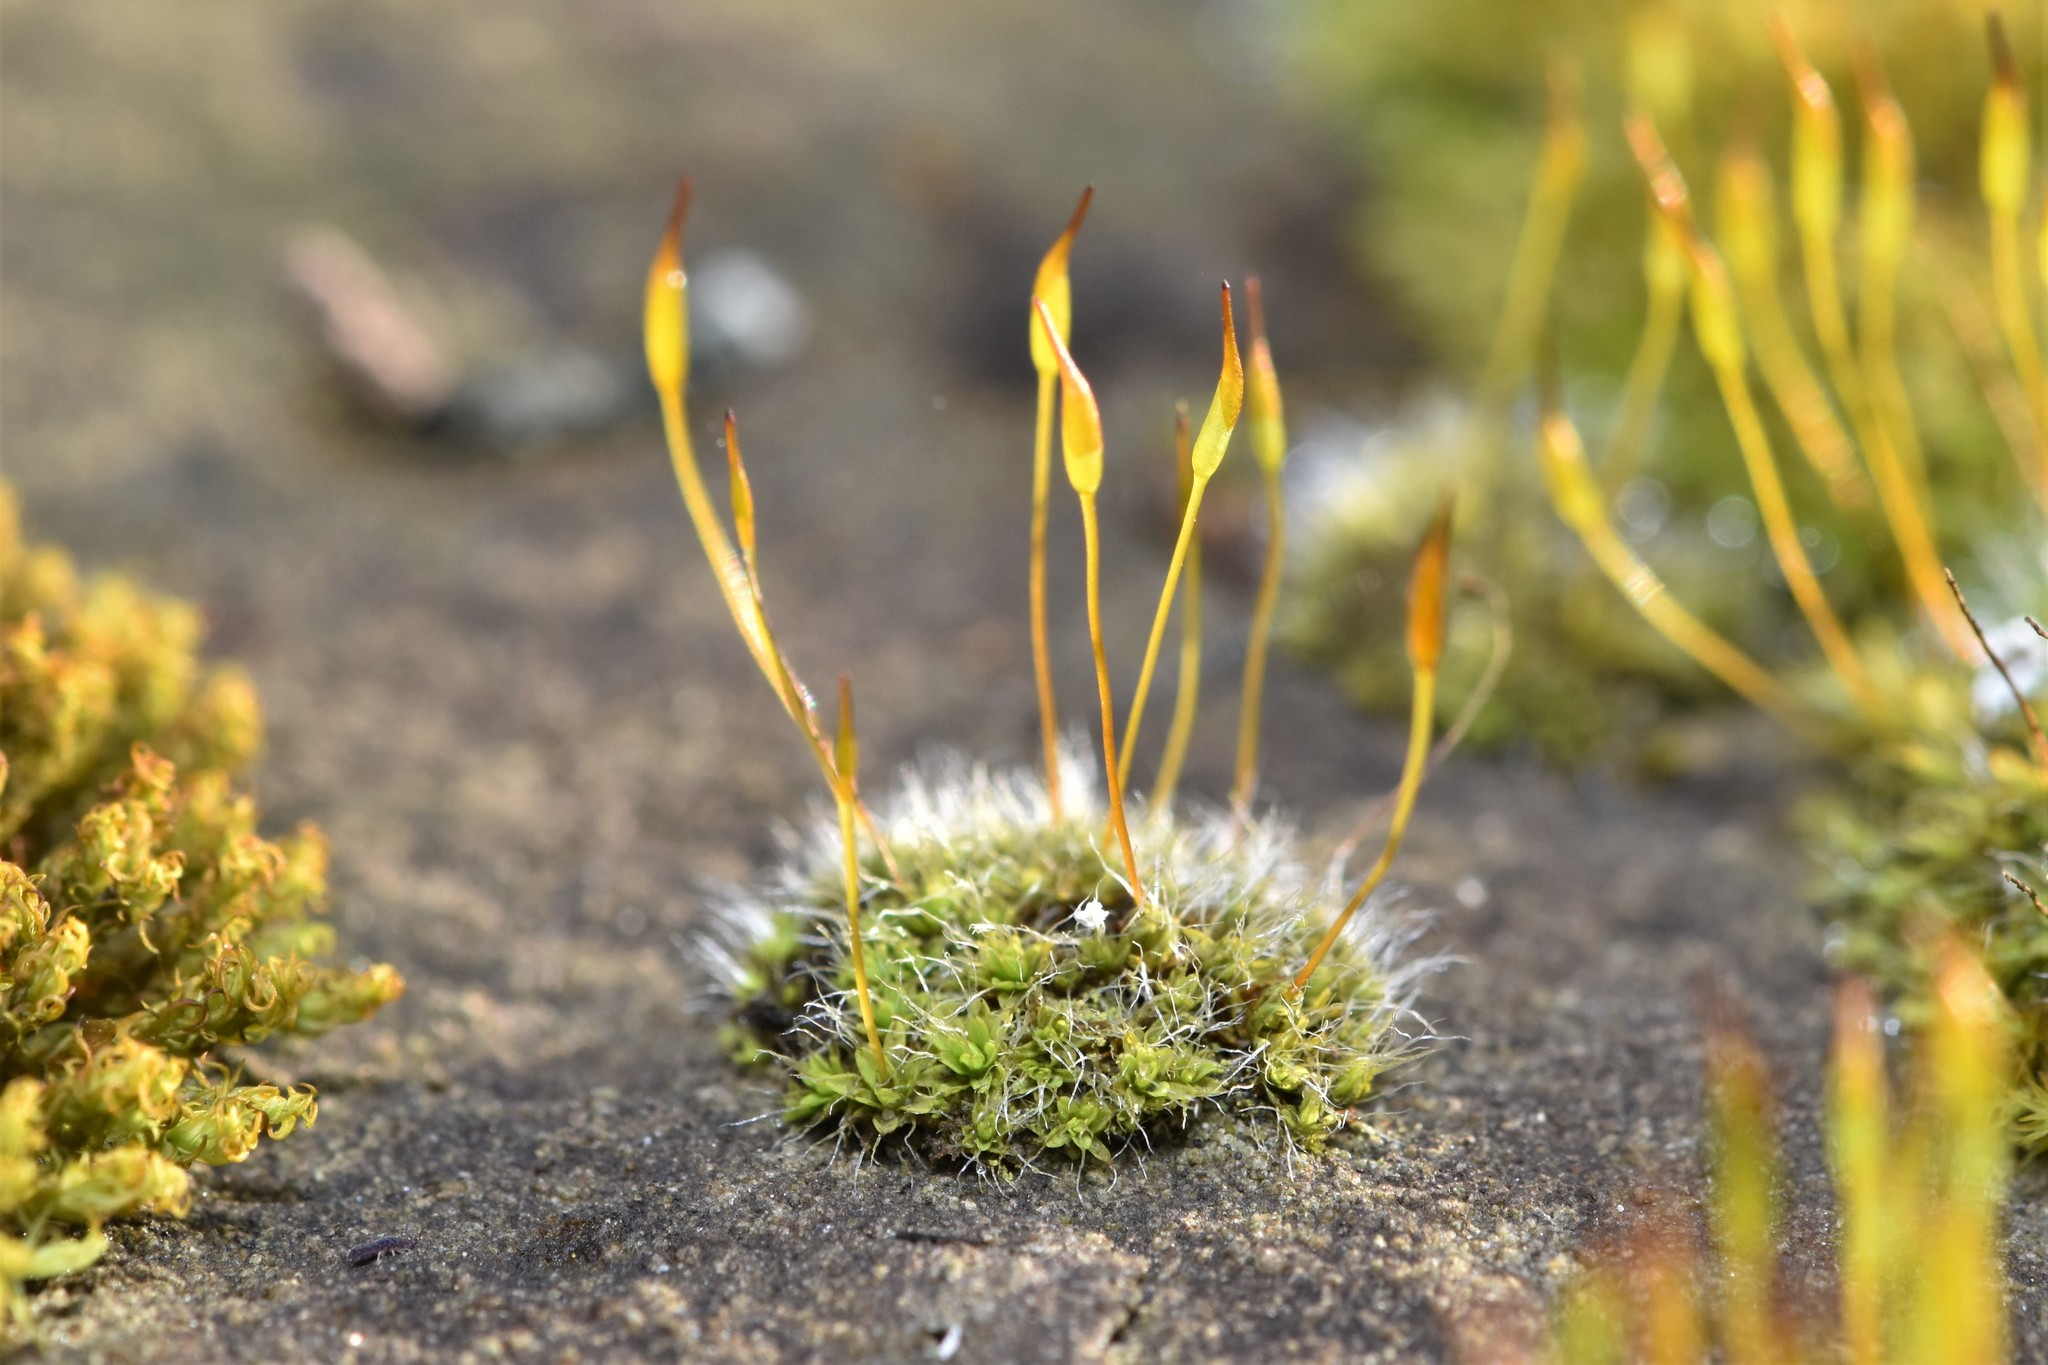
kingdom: Plantae
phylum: Bryophyta
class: Bryopsida
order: Pottiales
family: Pottiaceae
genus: Tortula
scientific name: Tortula muralis
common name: Wall screw-moss
